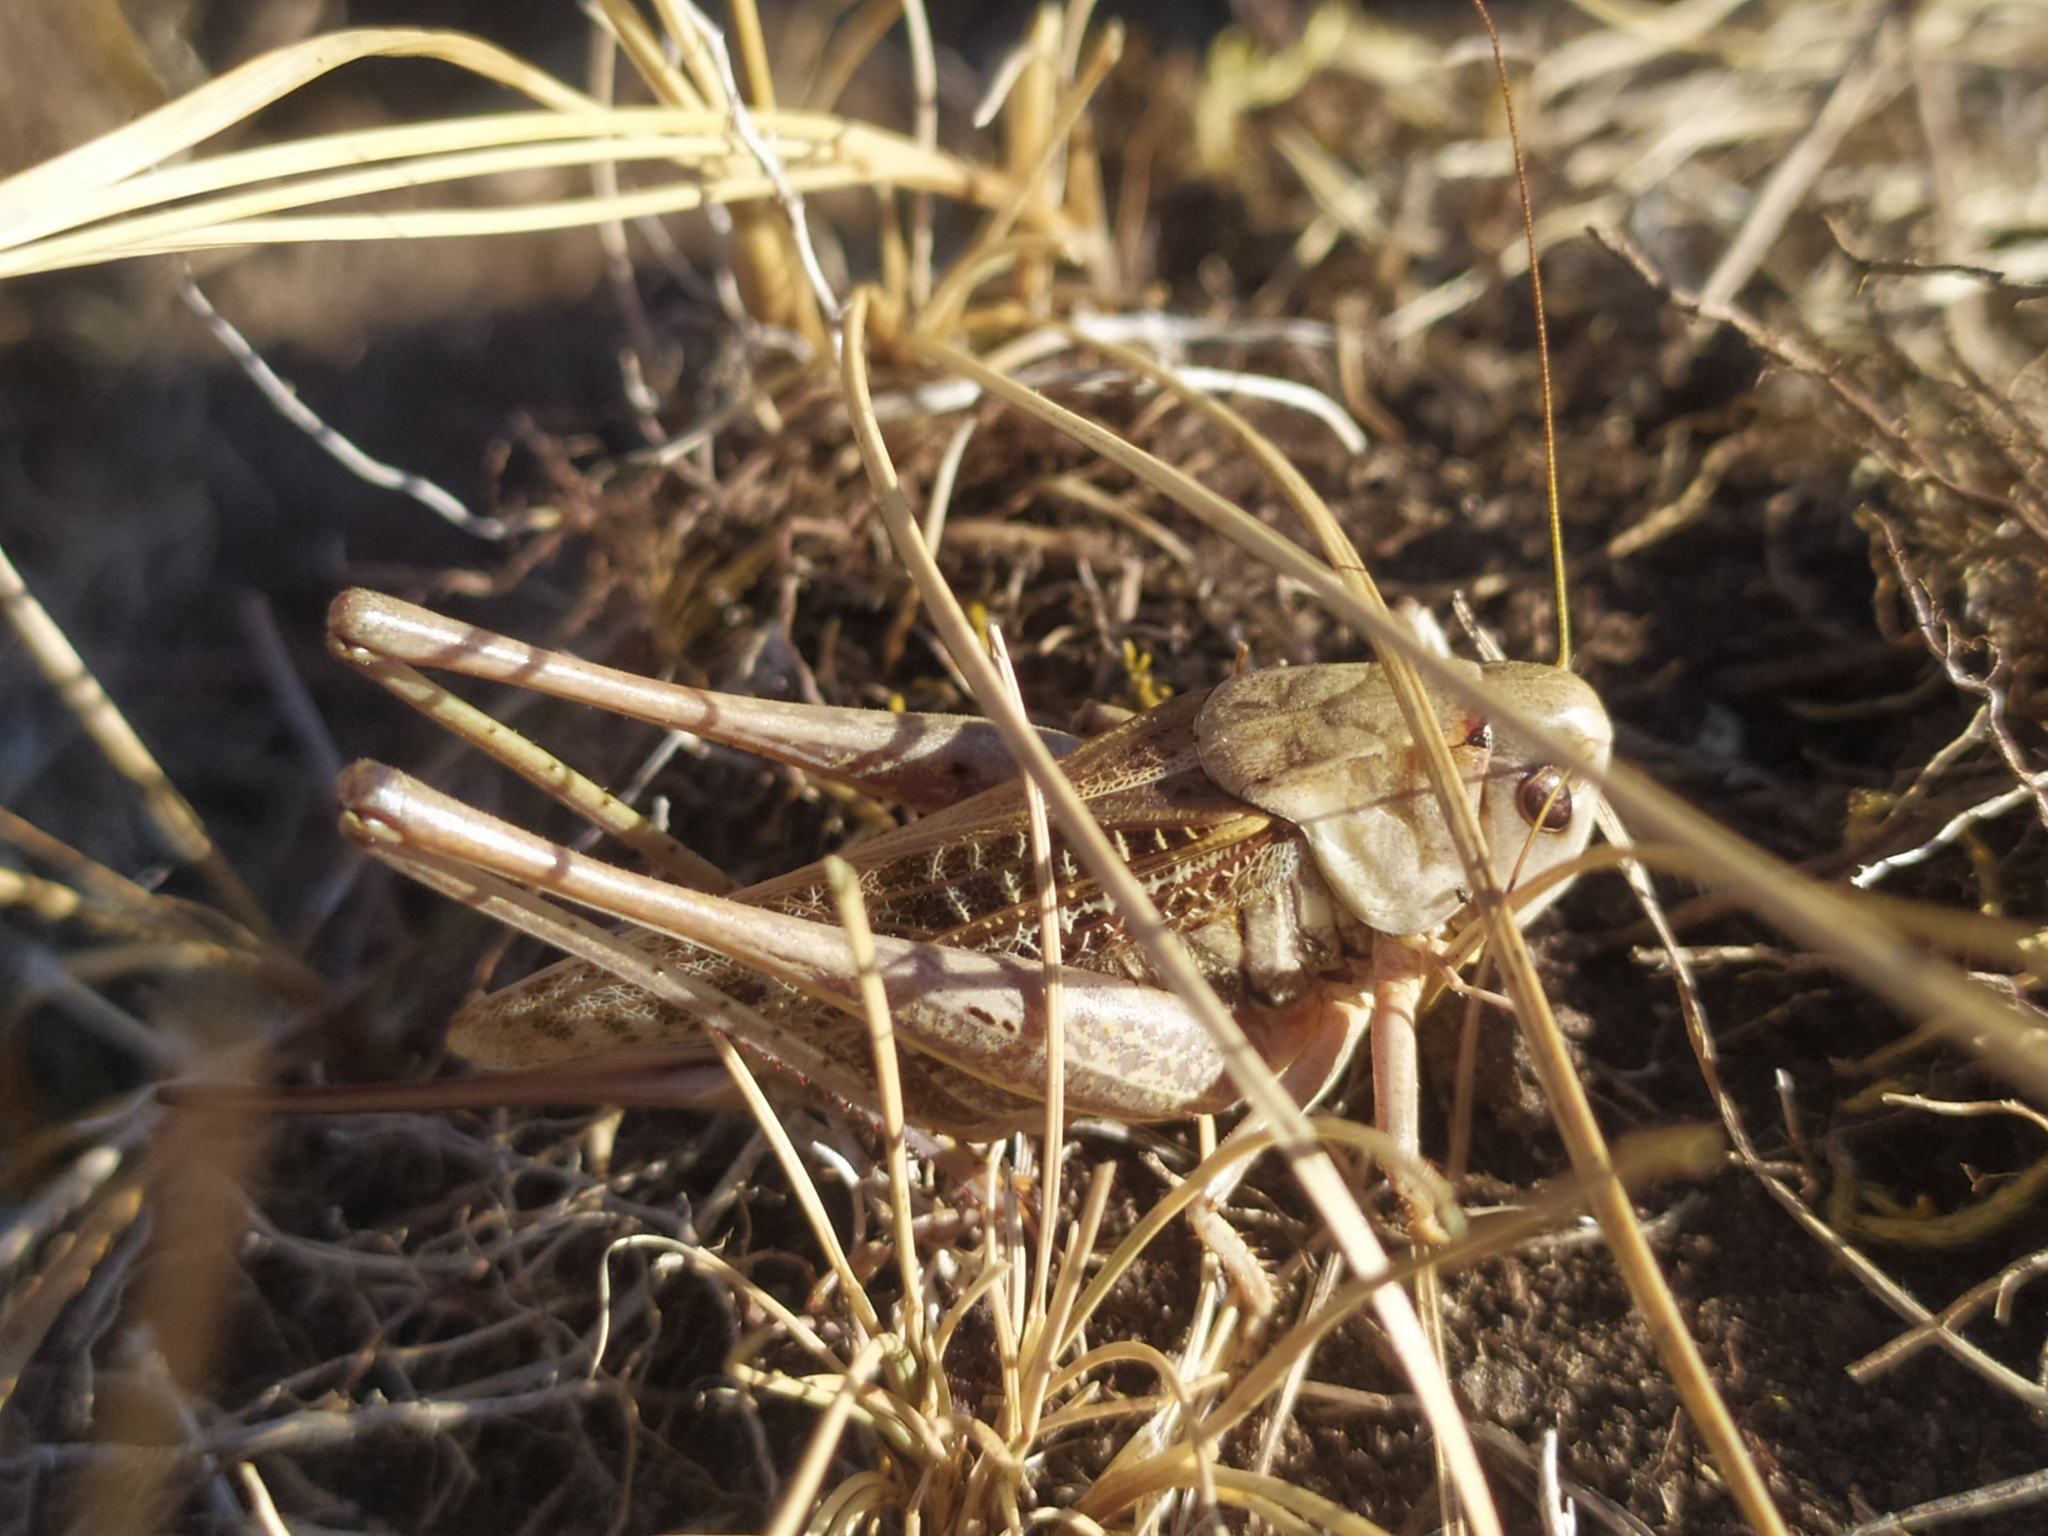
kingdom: Animalia
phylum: Arthropoda
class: Insecta
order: Orthoptera
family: Tettigoniidae
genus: Decticus
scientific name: Decticus verrucivorus
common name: Wart-biter
